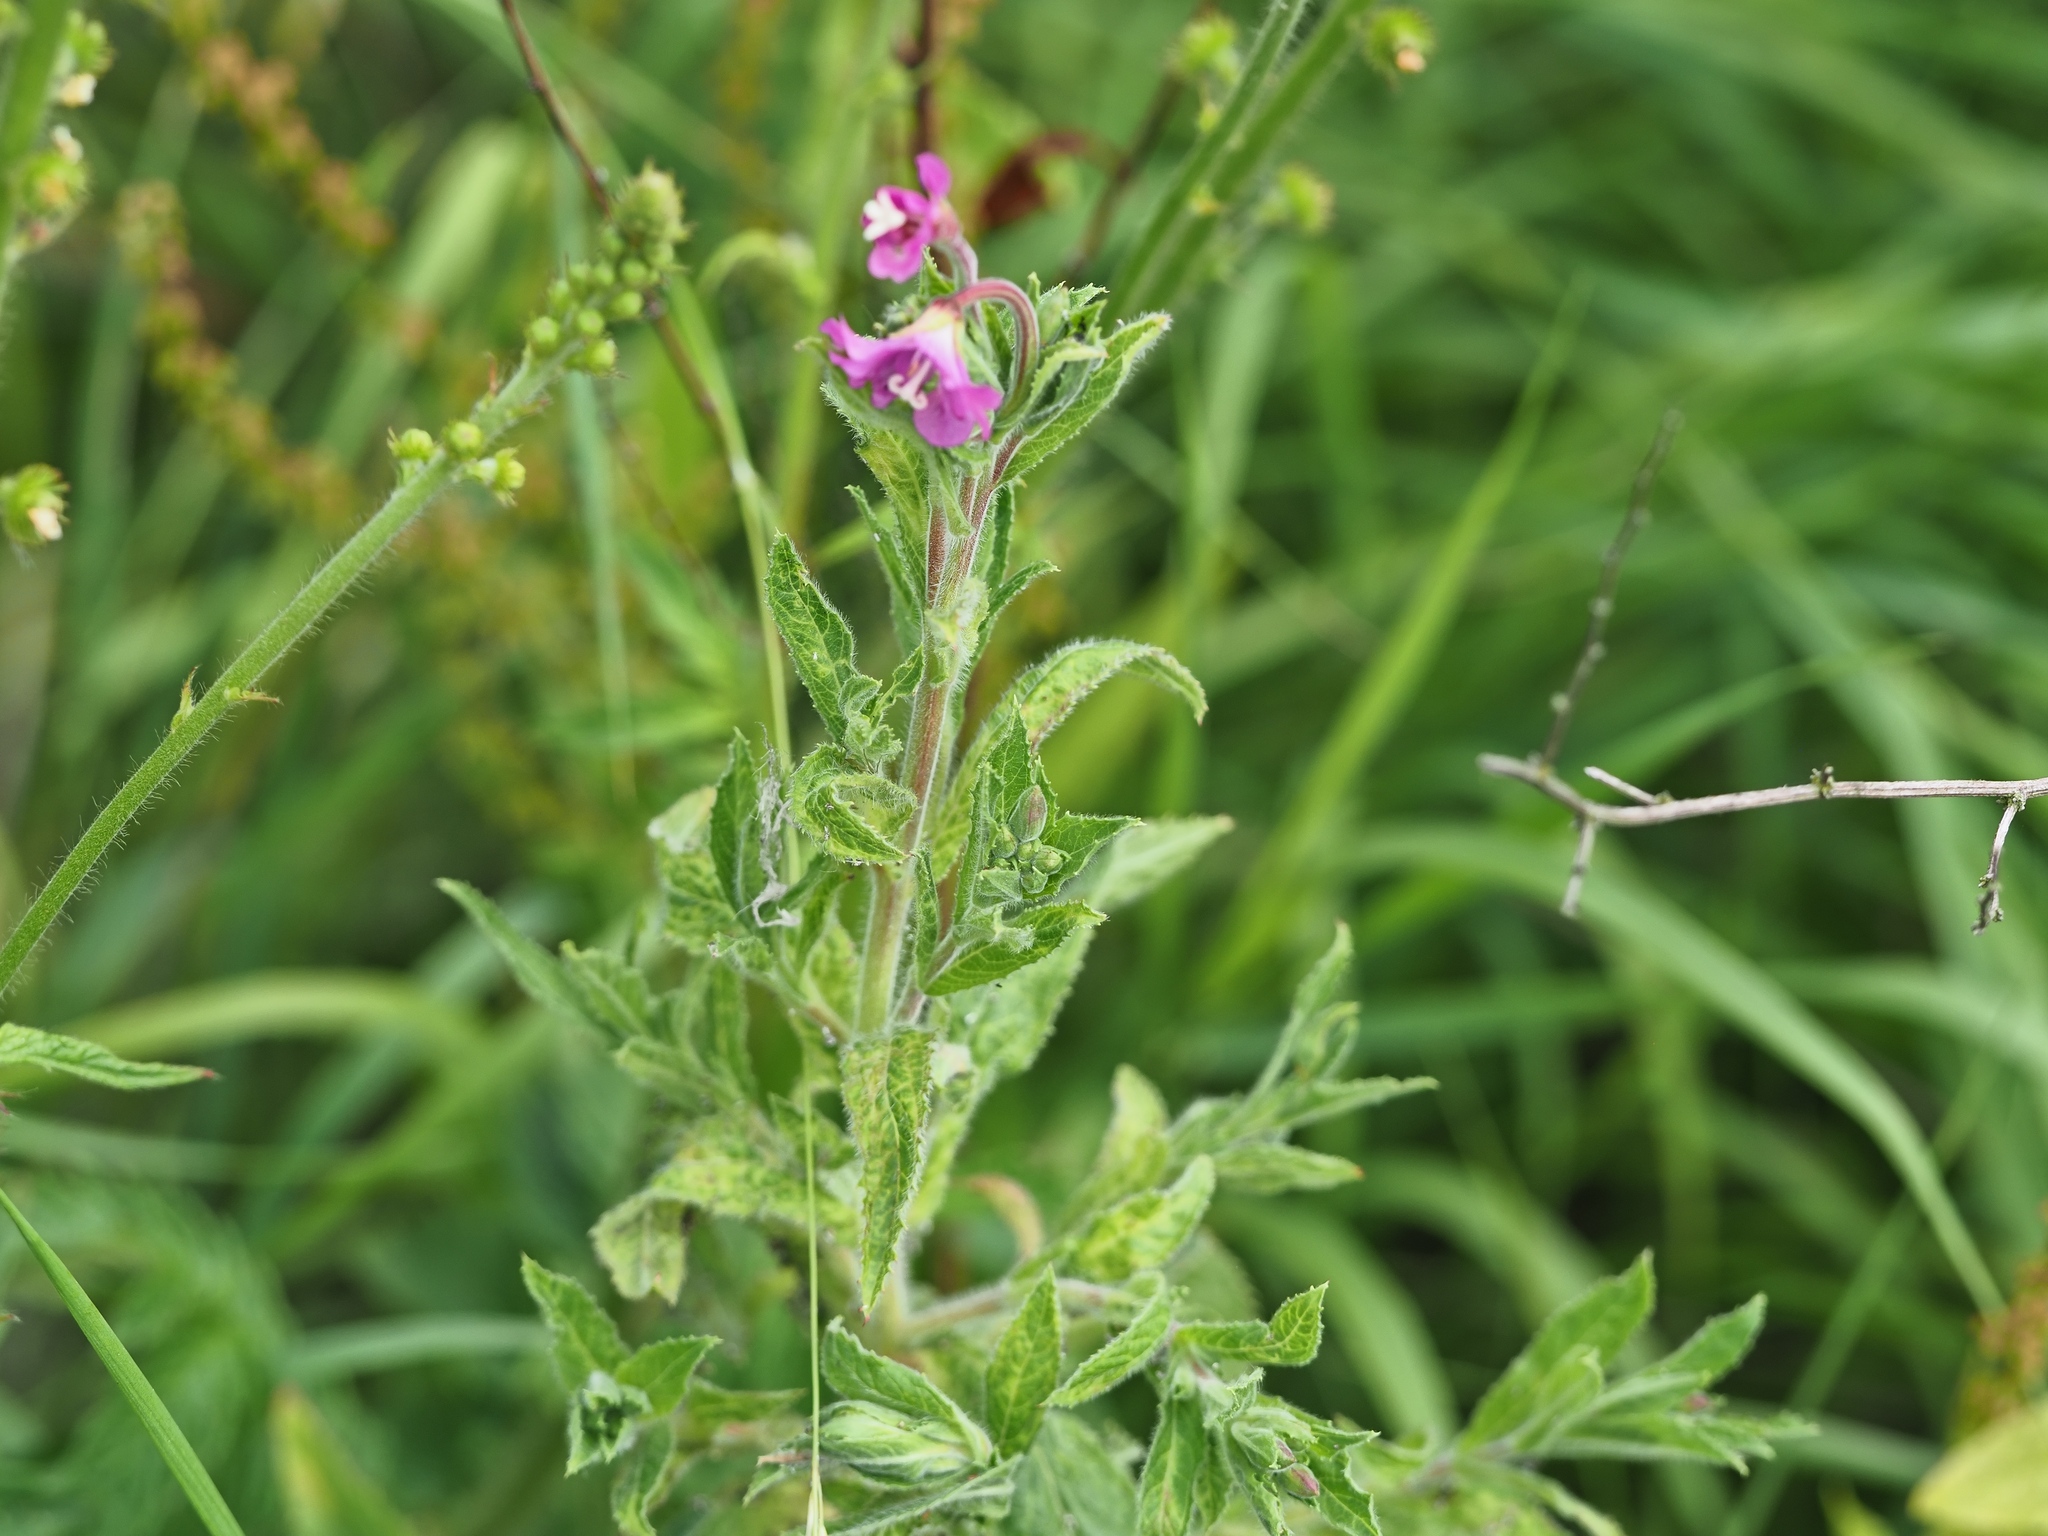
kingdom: Plantae
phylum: Tracheophyta
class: Magnoliopsida
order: Myrtales
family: Onagraceae
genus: Epilobium
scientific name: Epilobium hirsutum
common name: Great willowherb
